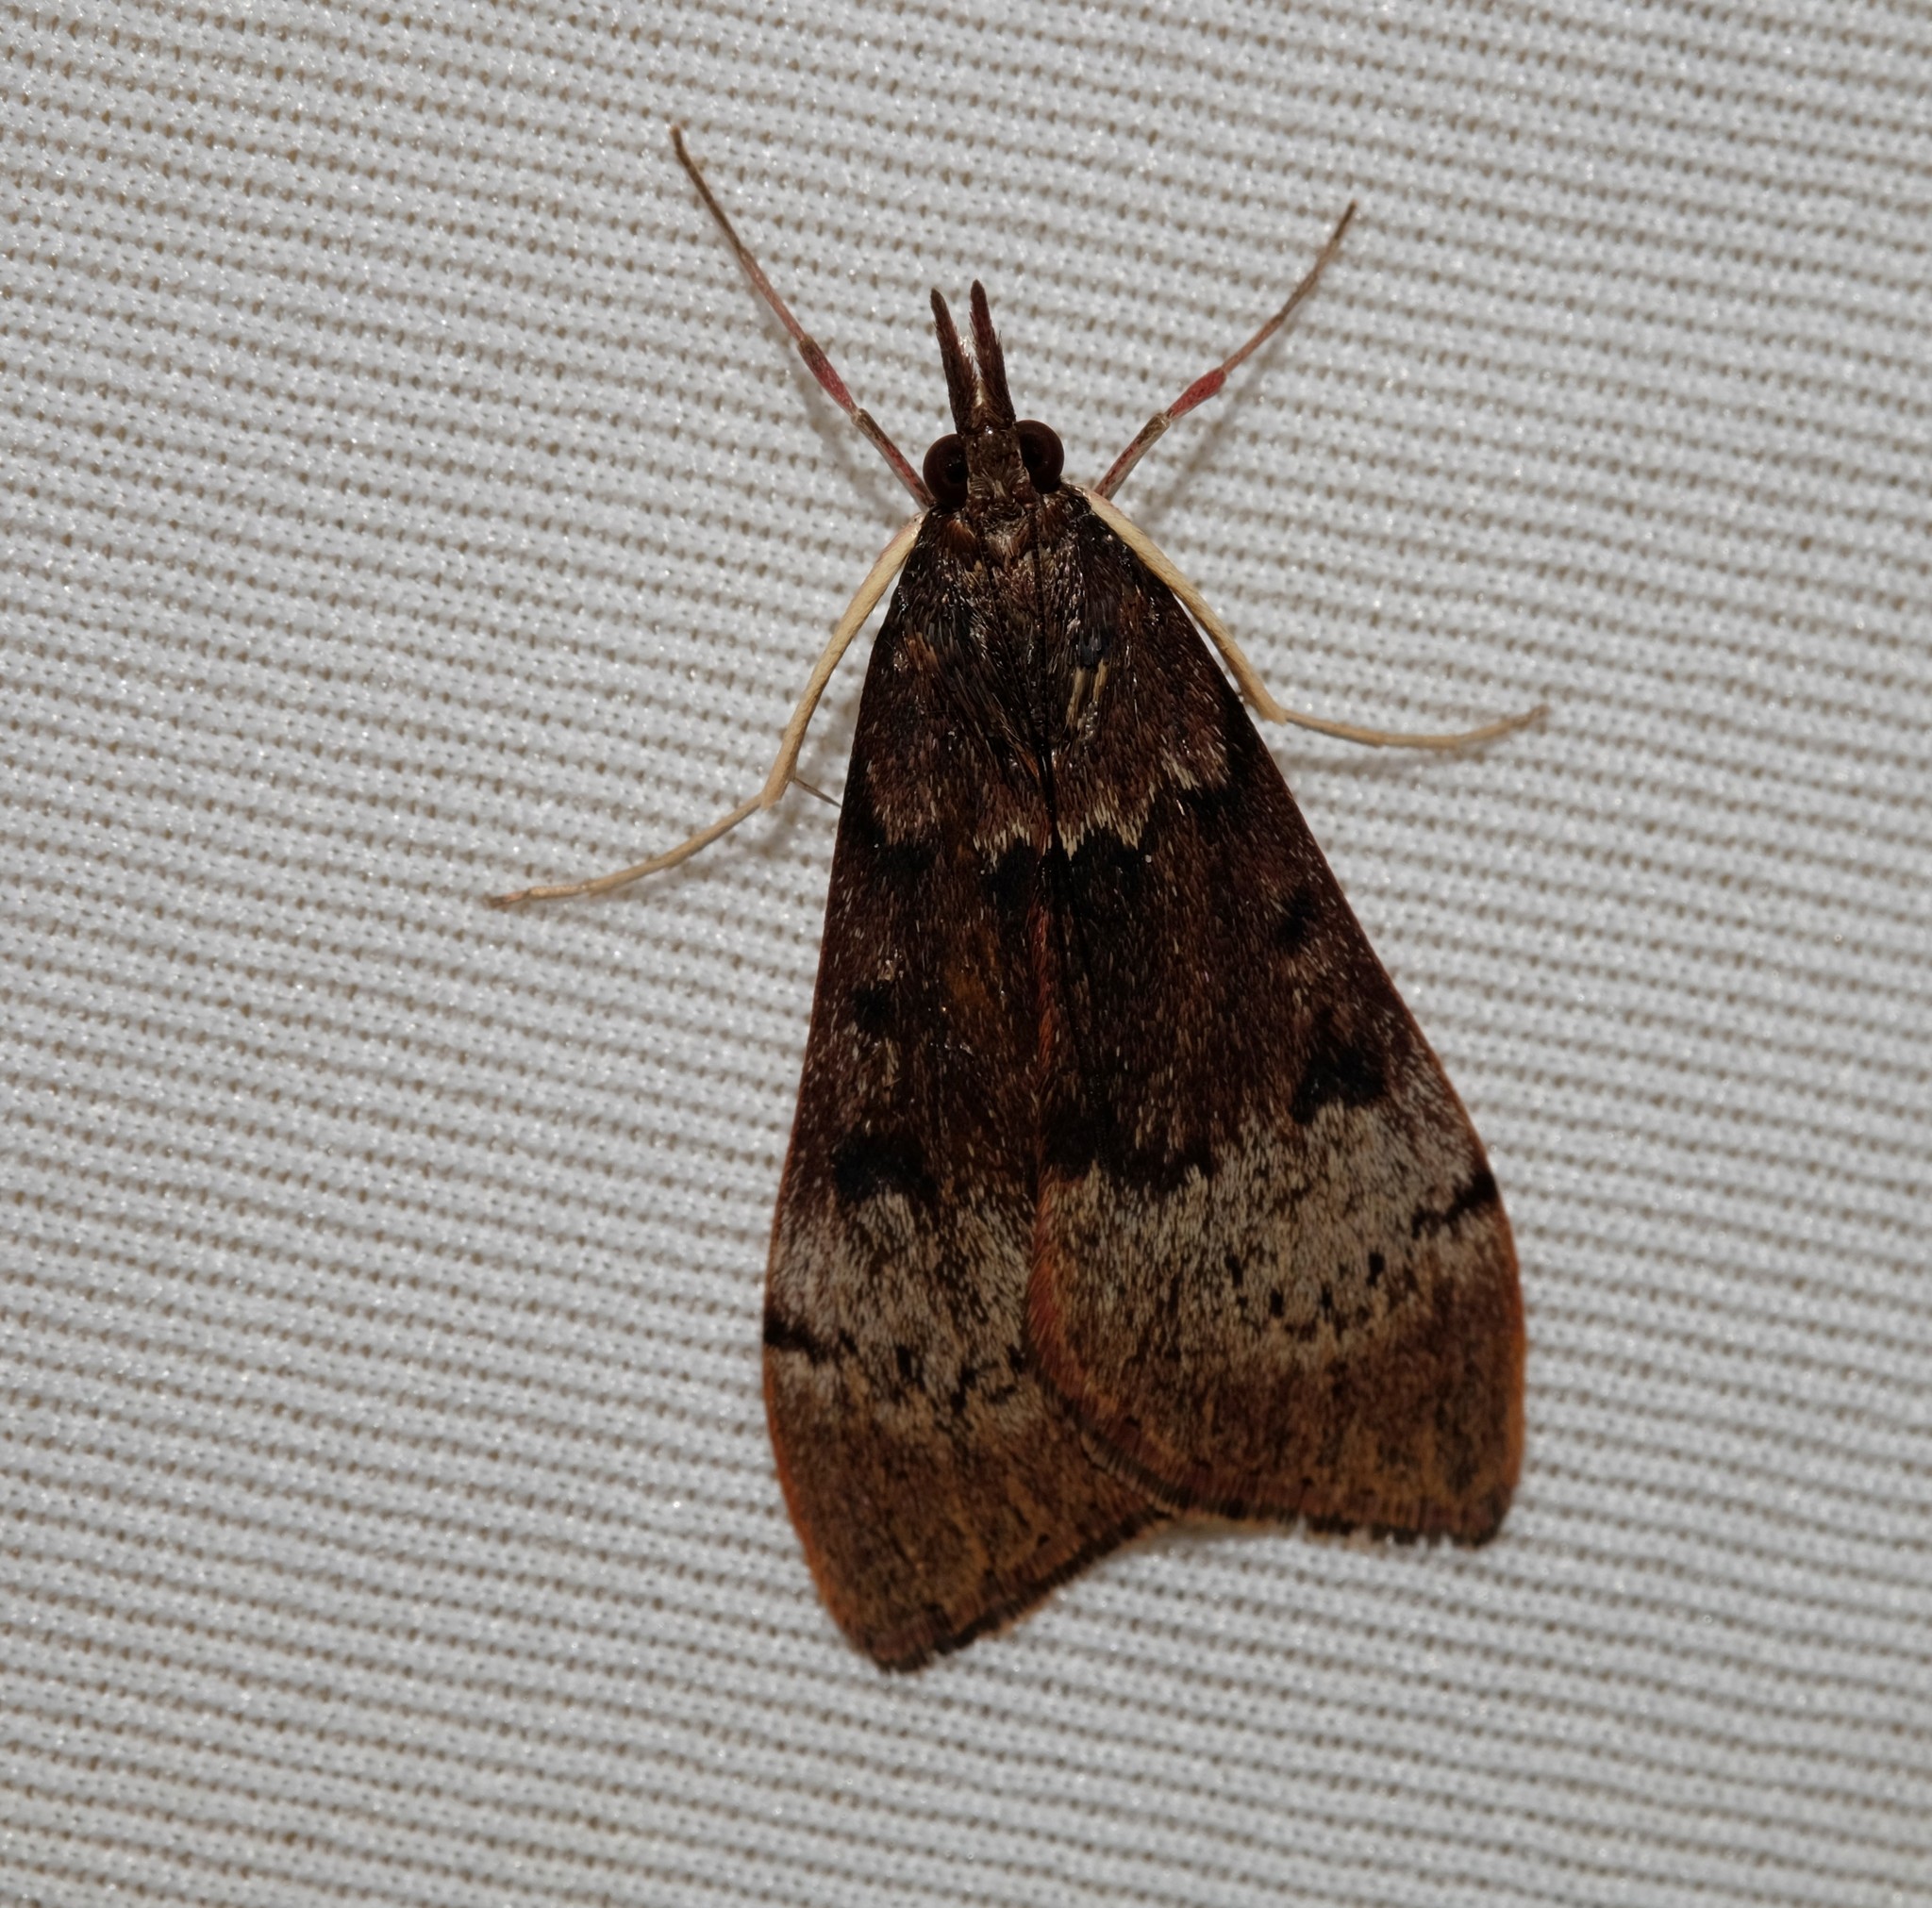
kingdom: Animalia
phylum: Arthropoda
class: Insecta
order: Lepidoptera
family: Crambidae
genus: Uresiphita
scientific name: Uresiphita ornithopteralis
